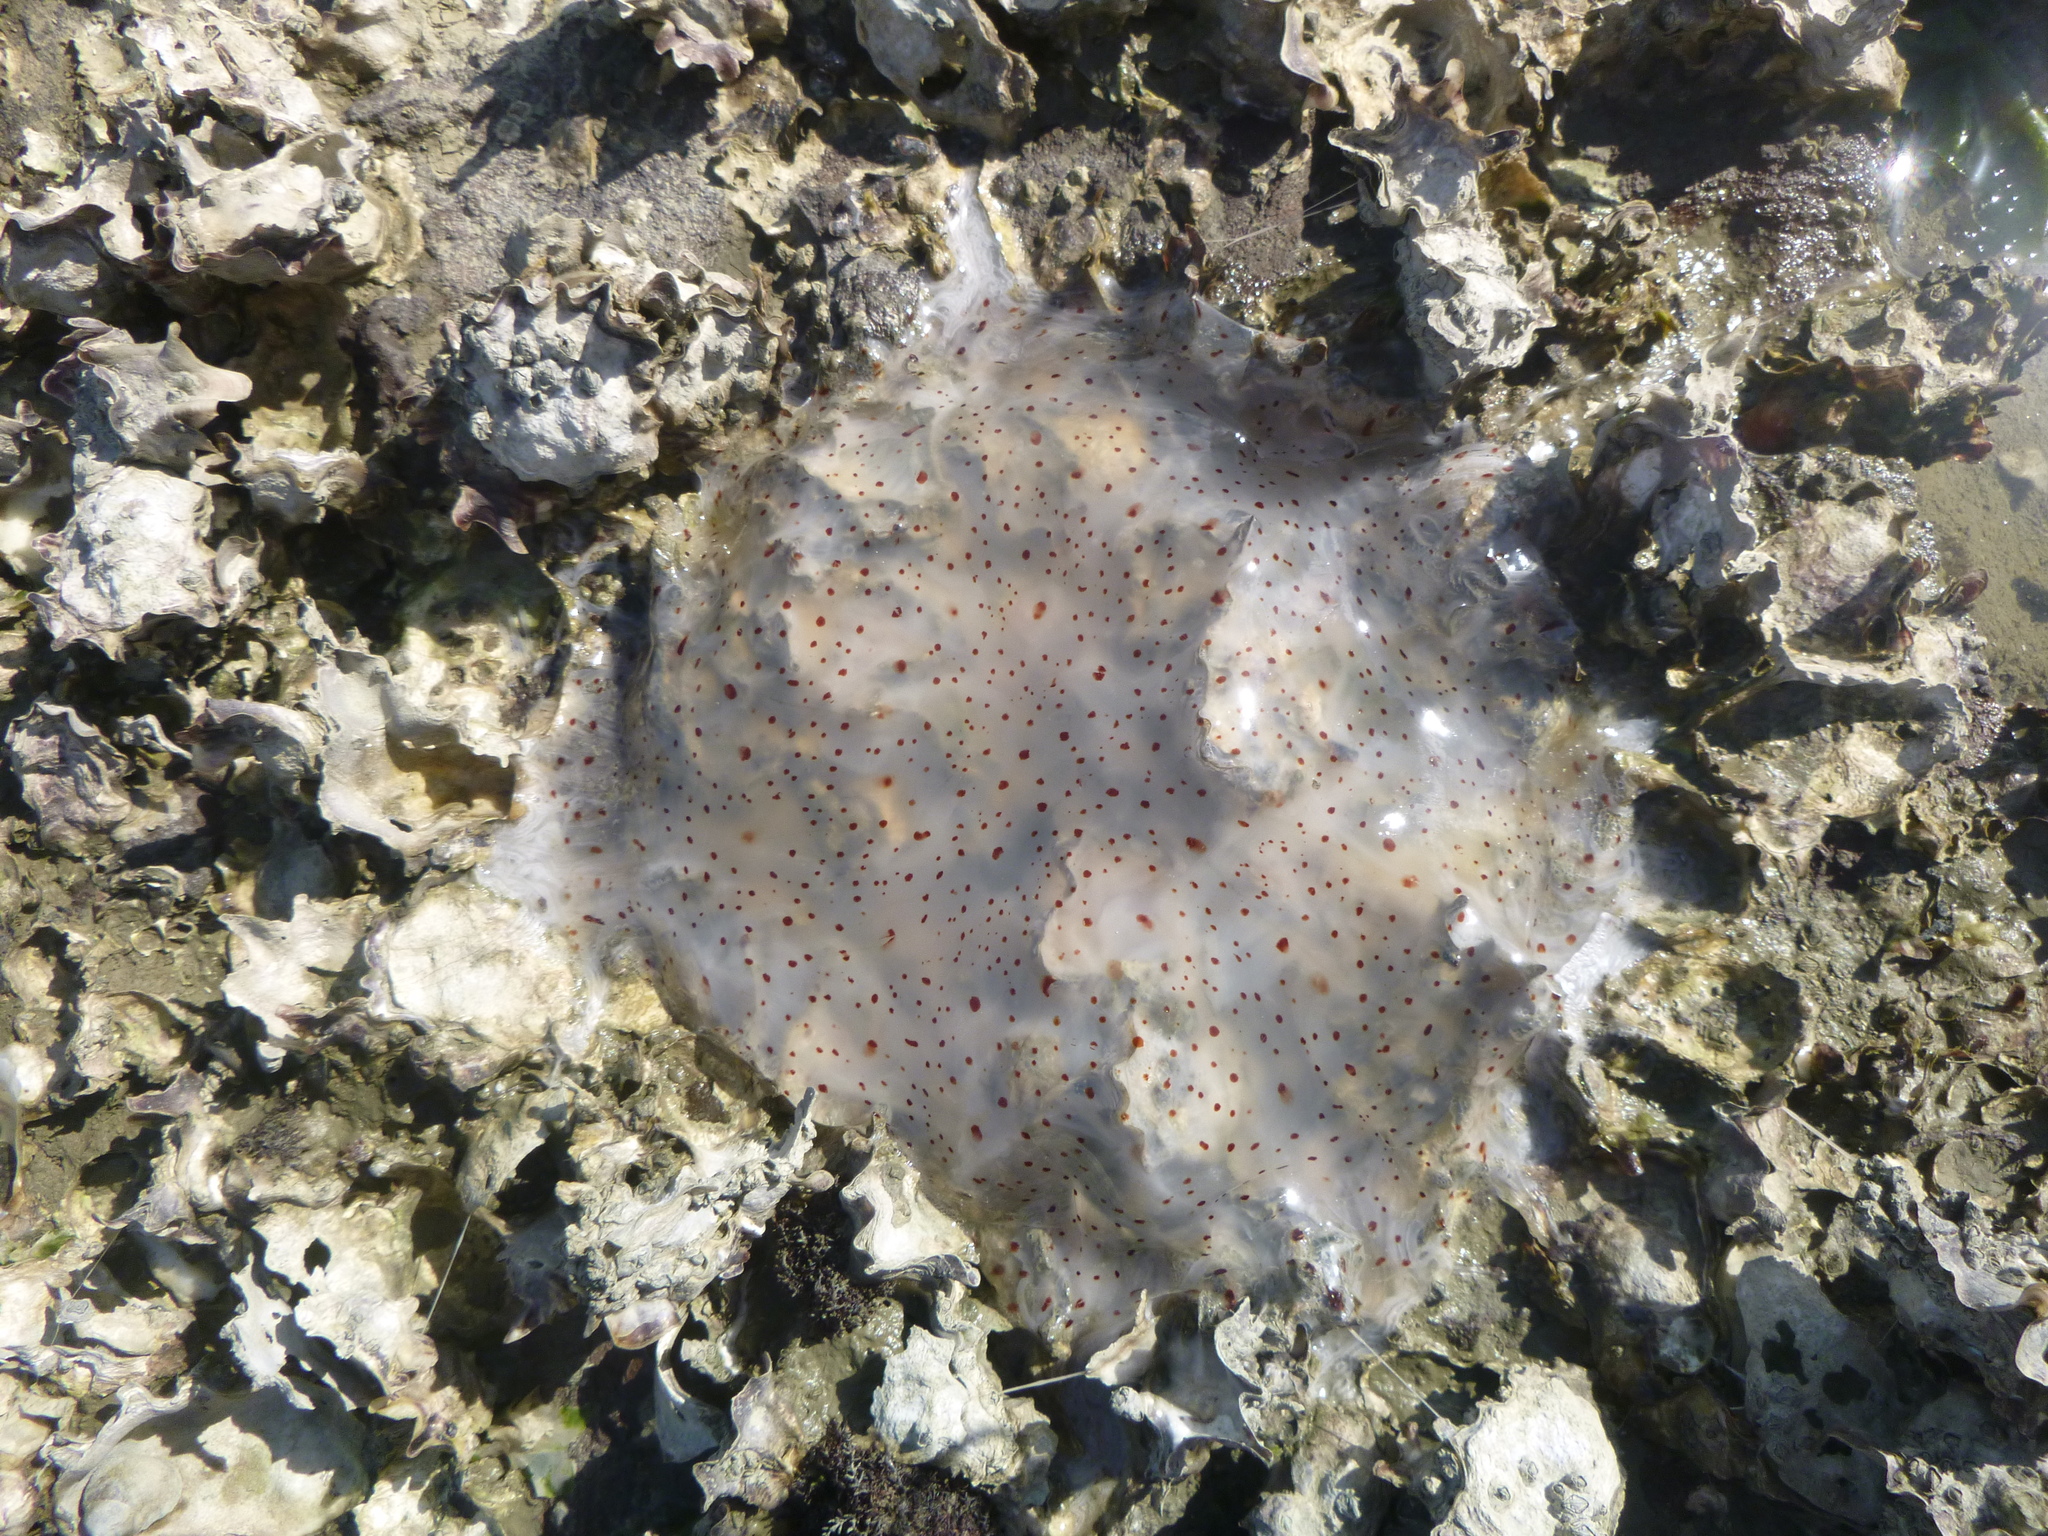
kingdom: Animalia
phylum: Cnidaria
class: Scyphozoa
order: Semaeostomeae
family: Cyaneidae
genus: Desmonema
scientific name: Desmonema gaudichaudi
